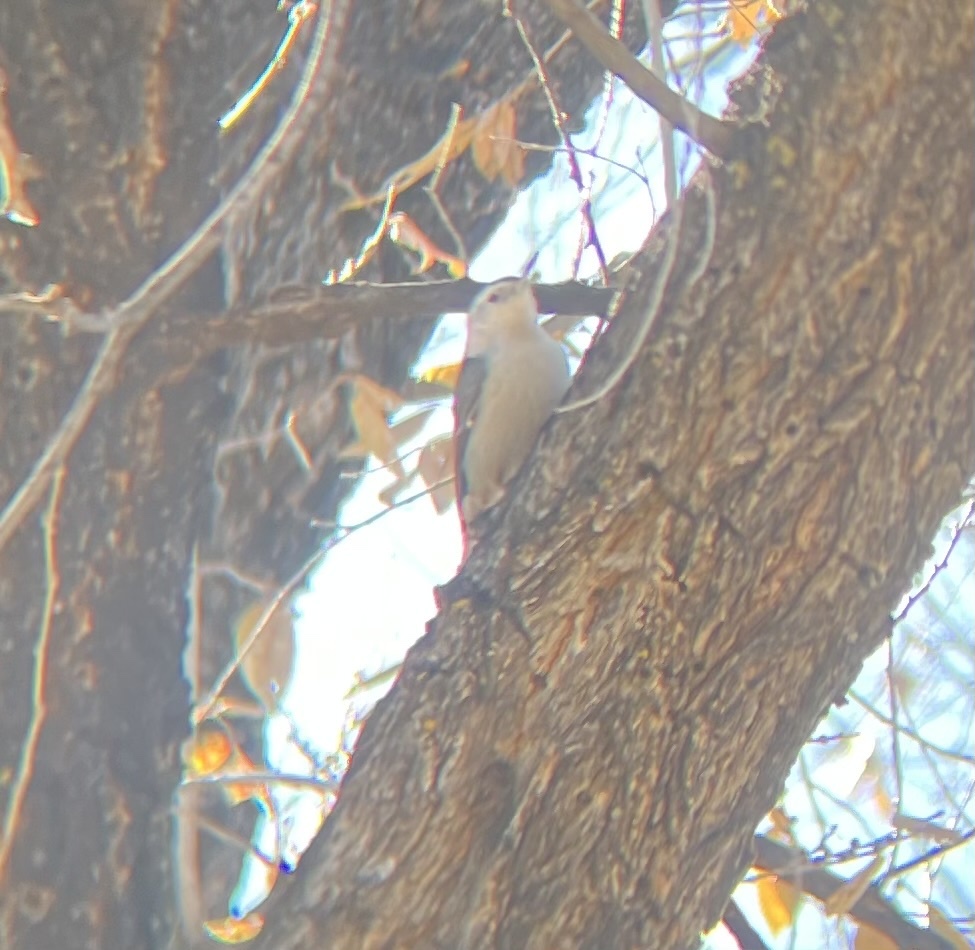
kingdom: Animalia
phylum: Chordata
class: Aves
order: Passeriformes
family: Sittidae
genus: Sitta
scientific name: Sitta carolinensis
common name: White-breasted nuthatch
